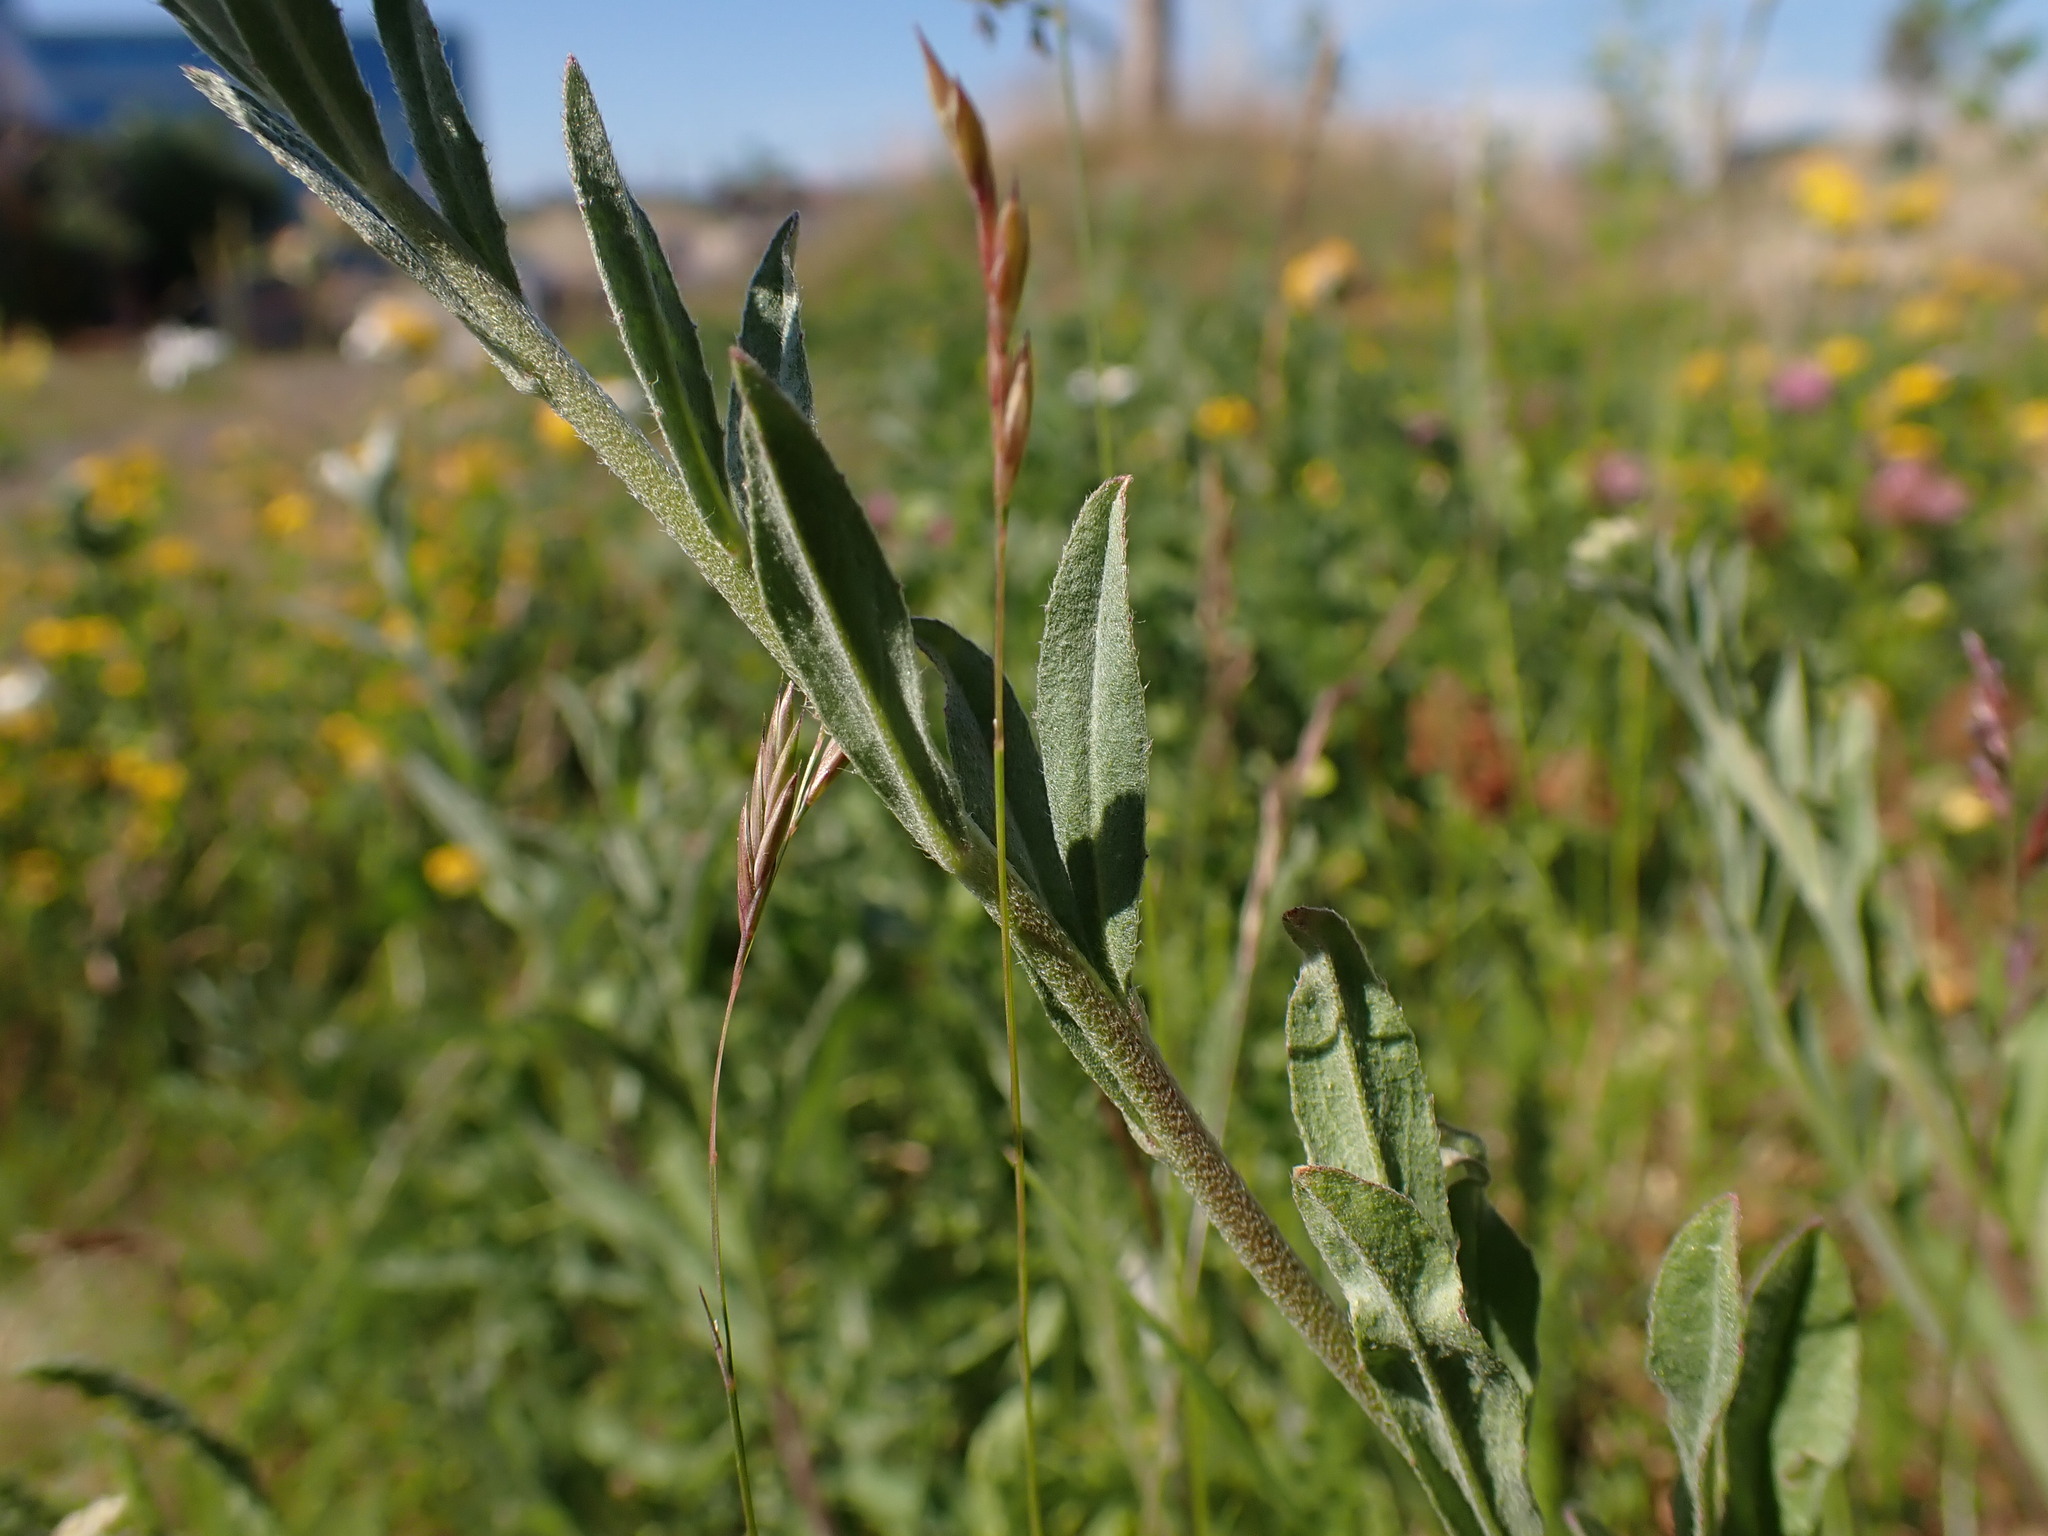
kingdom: Plantae
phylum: Tracheophyta
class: Magnoliopsida
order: Brassicales
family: Brassicaceae
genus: Berteroa
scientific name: Berteroa incana
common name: Hoary alison
